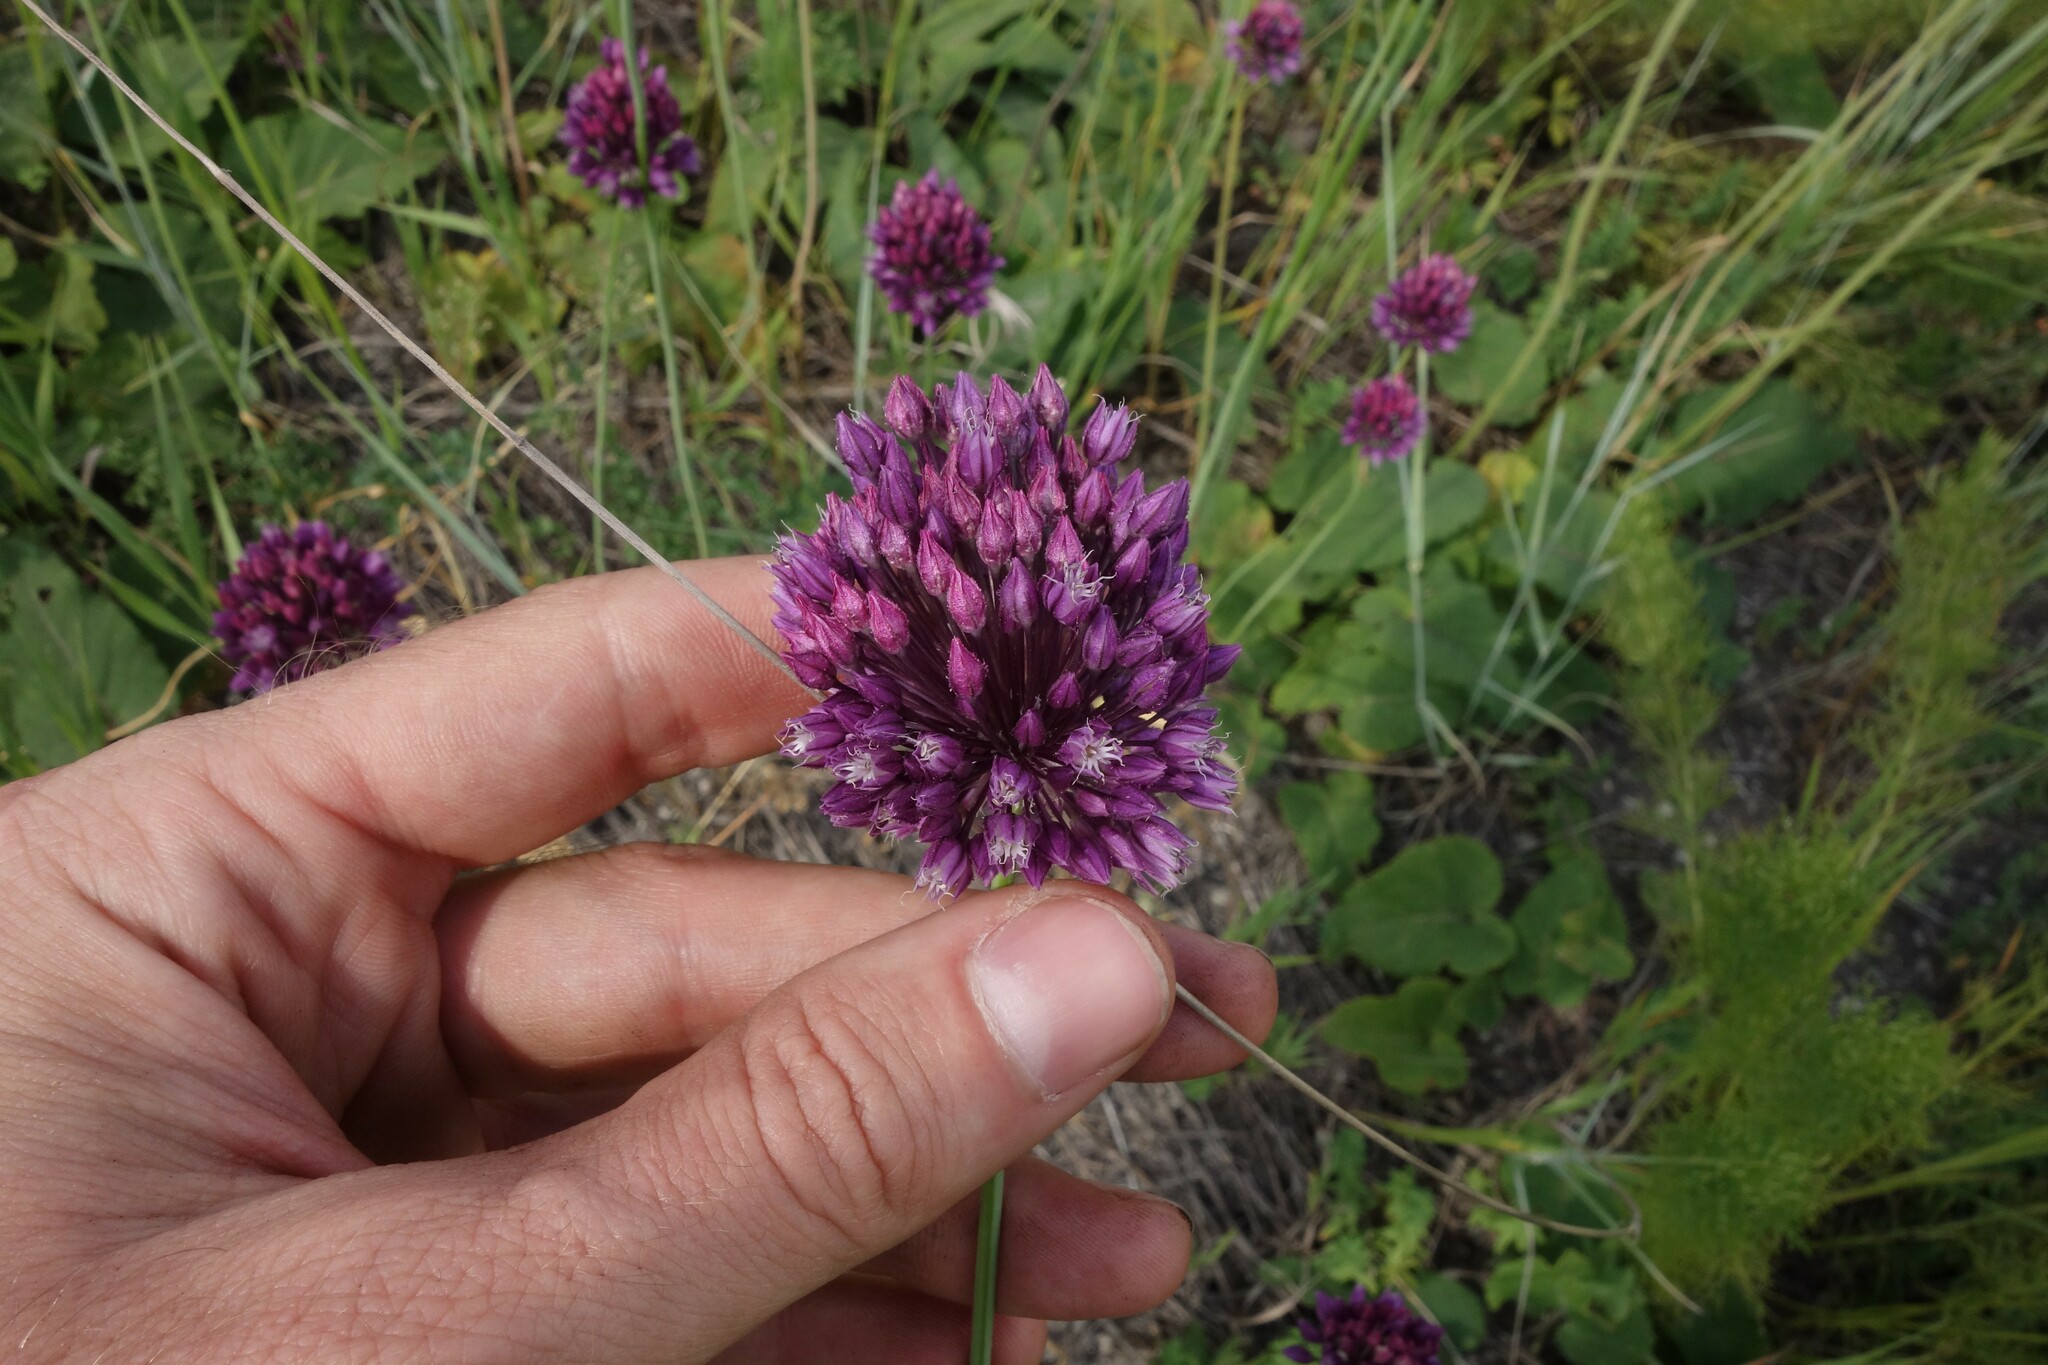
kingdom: Plantae
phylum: Tracheophyta
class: Liliopsida
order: Asparagales
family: Amaryllidaceae
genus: Allium
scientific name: Allium rotundum
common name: Sand leek
